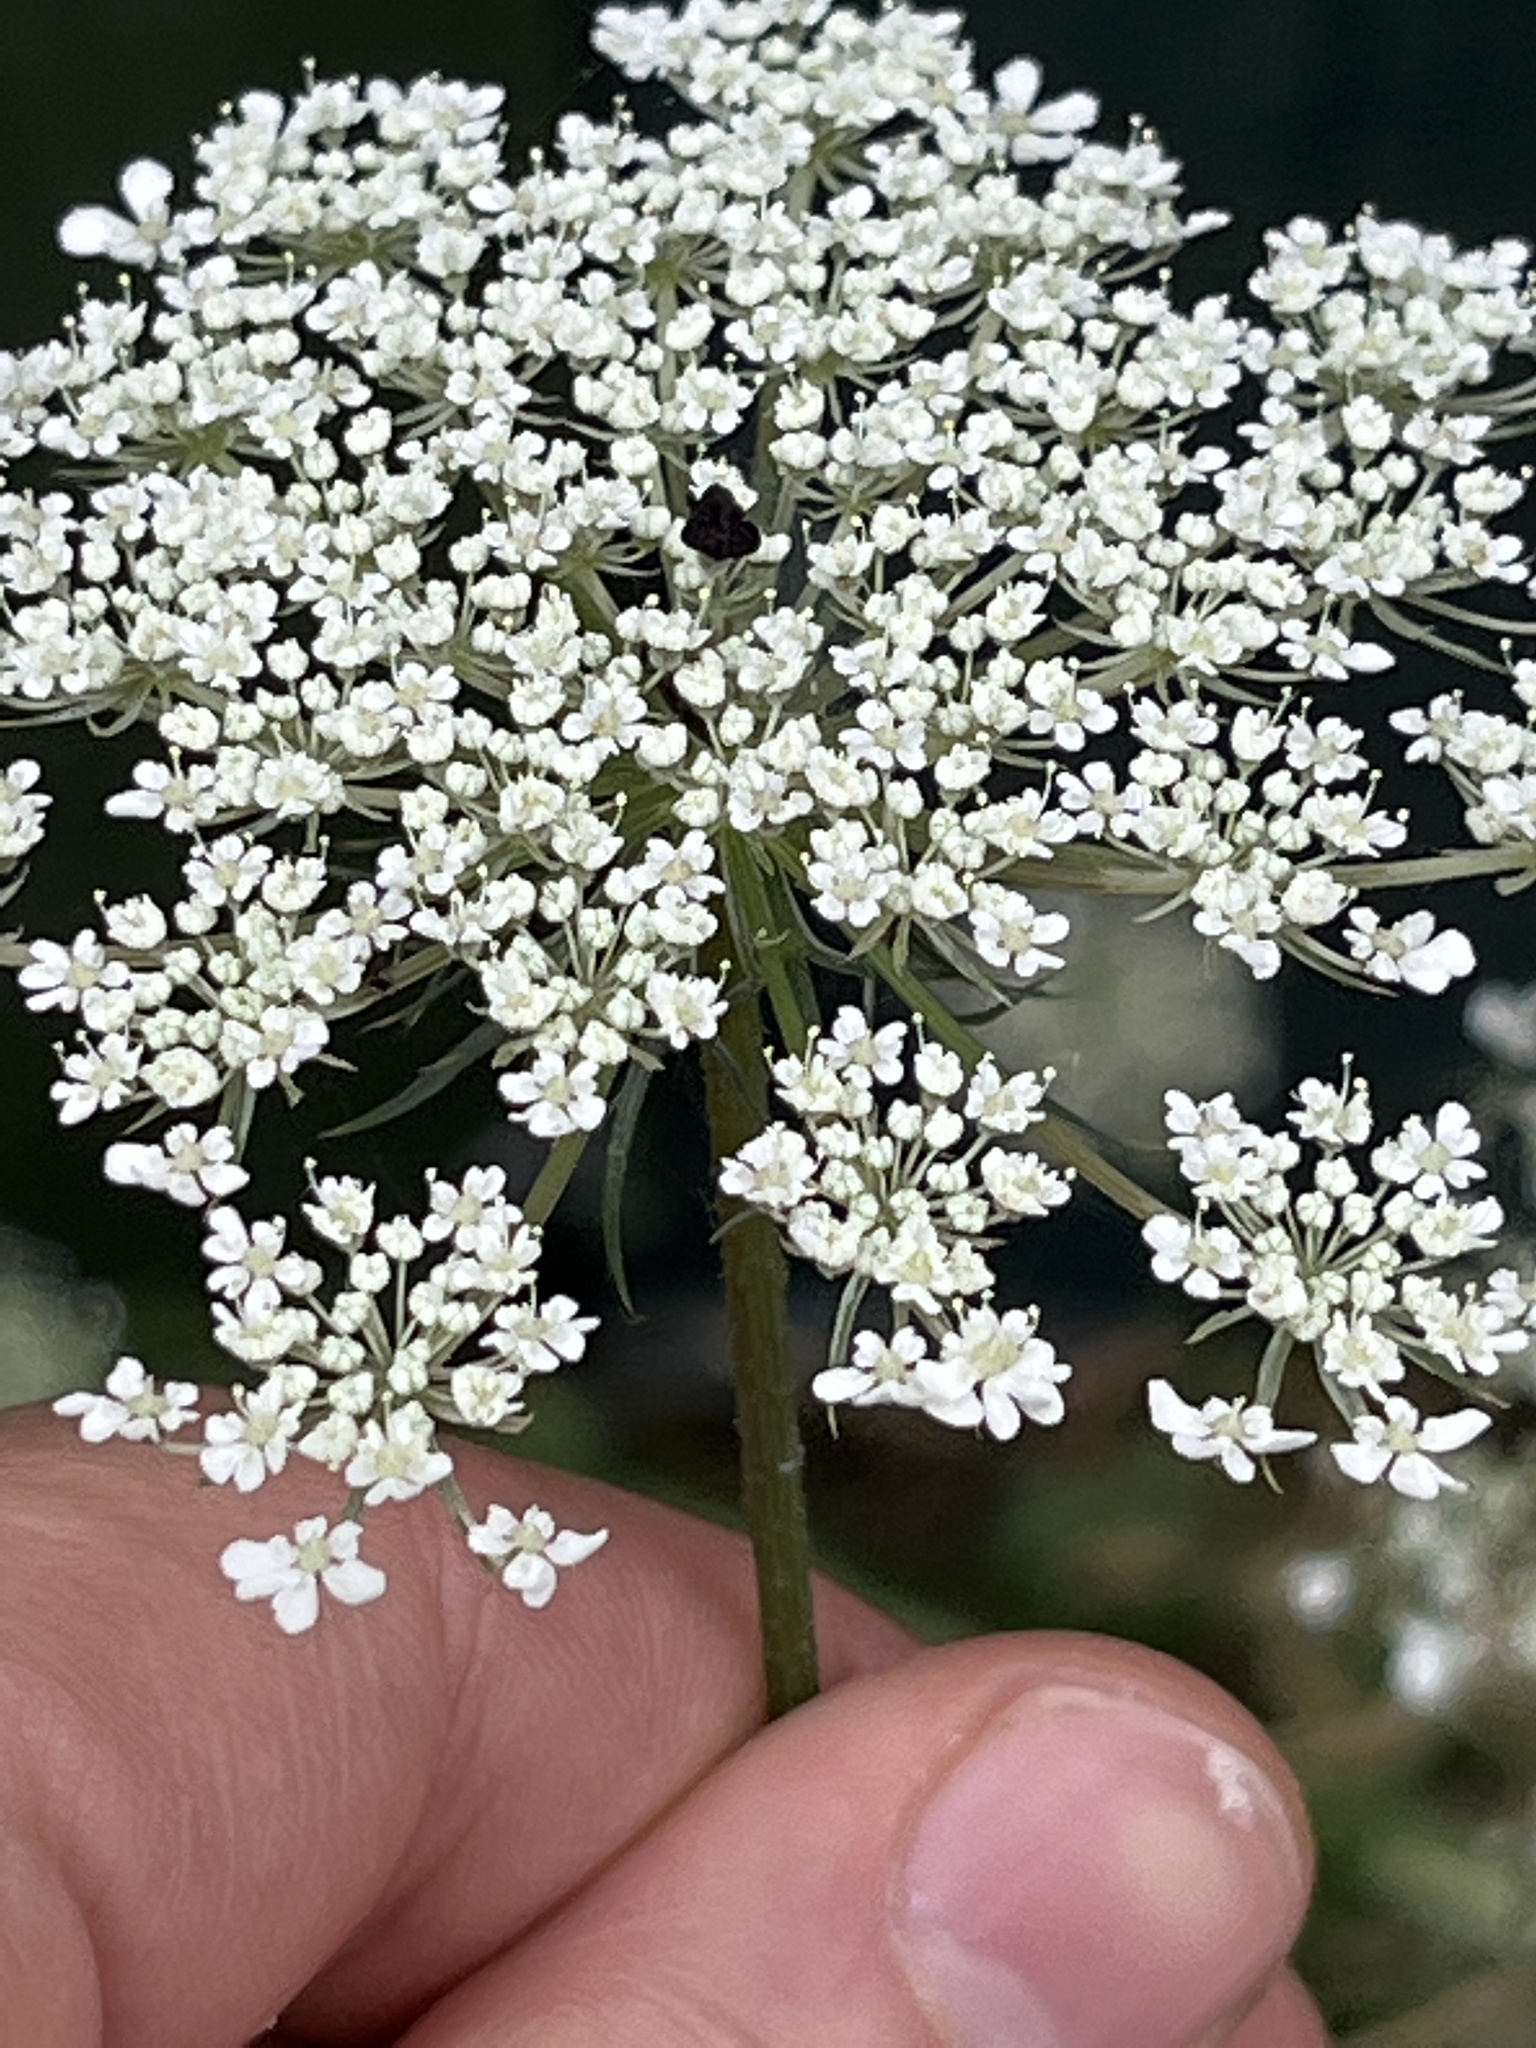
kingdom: Plantae
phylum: Tracheophyta
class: Magnoliopsida
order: Apiales
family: Apiaceae
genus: Daucus
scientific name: Daucus carota
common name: Wild carrot
